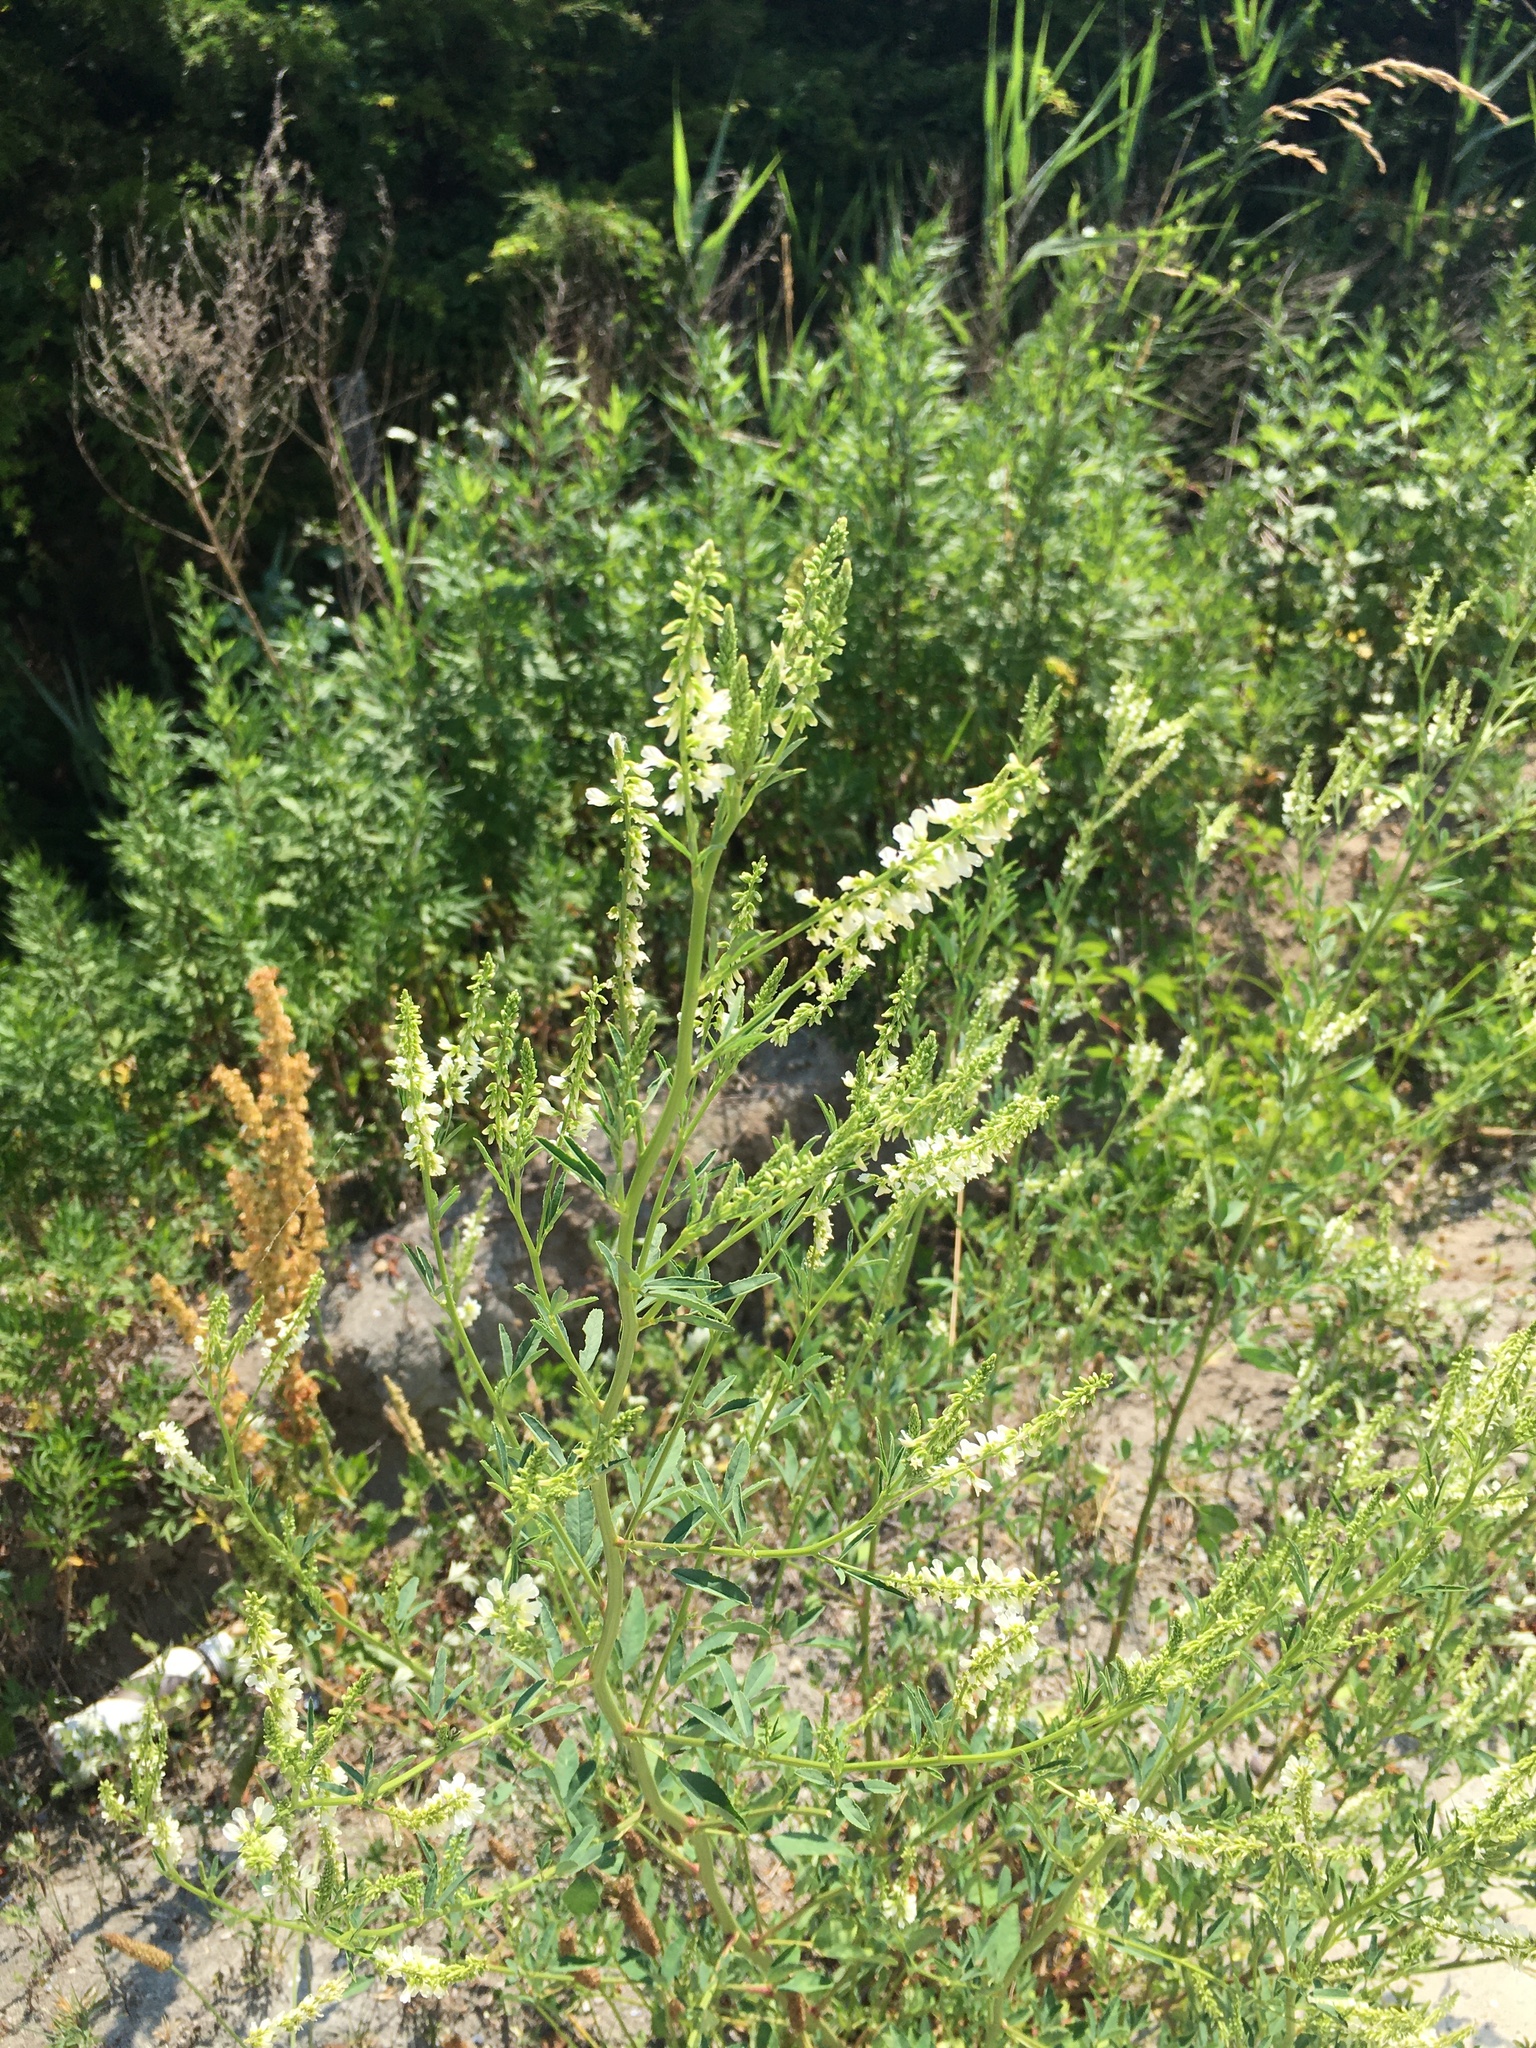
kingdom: Plantae
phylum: Tracheophyta
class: Magnoliopsida
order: Fabales
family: Fabaceae
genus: Melilotus
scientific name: Melilotus albus
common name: White melilot
